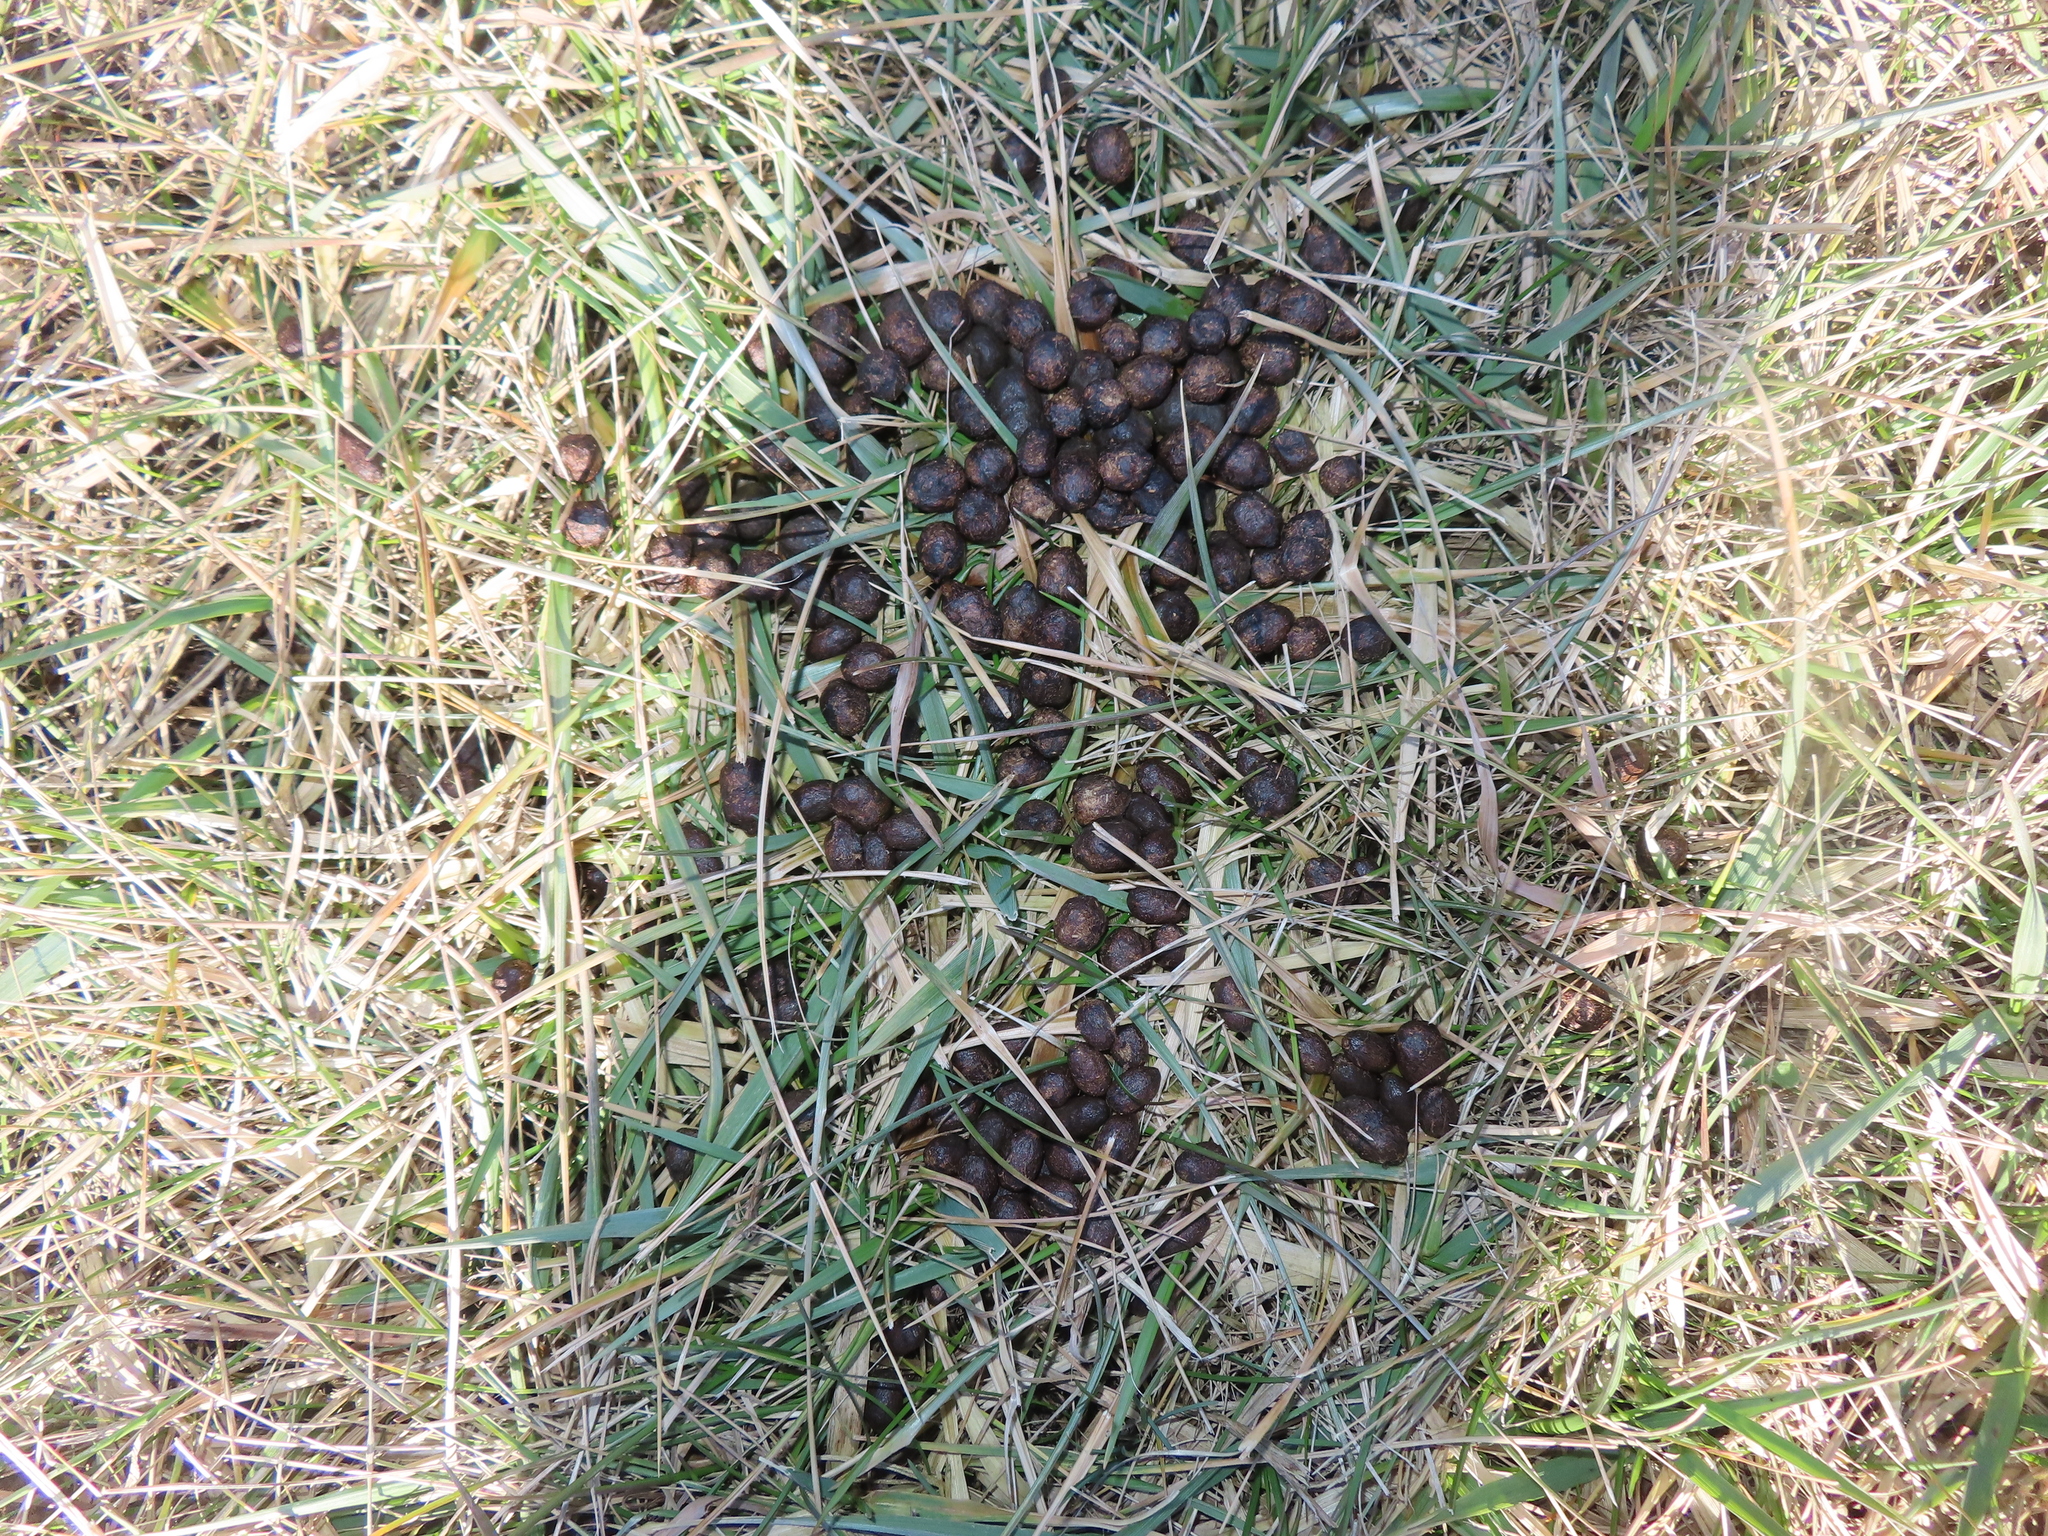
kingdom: Animalia
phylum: Chordata
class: Mammalia
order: Artiodactyla
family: Cervidae
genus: Odocoileus
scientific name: Odocoileus virginianus
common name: White-tailed deer
